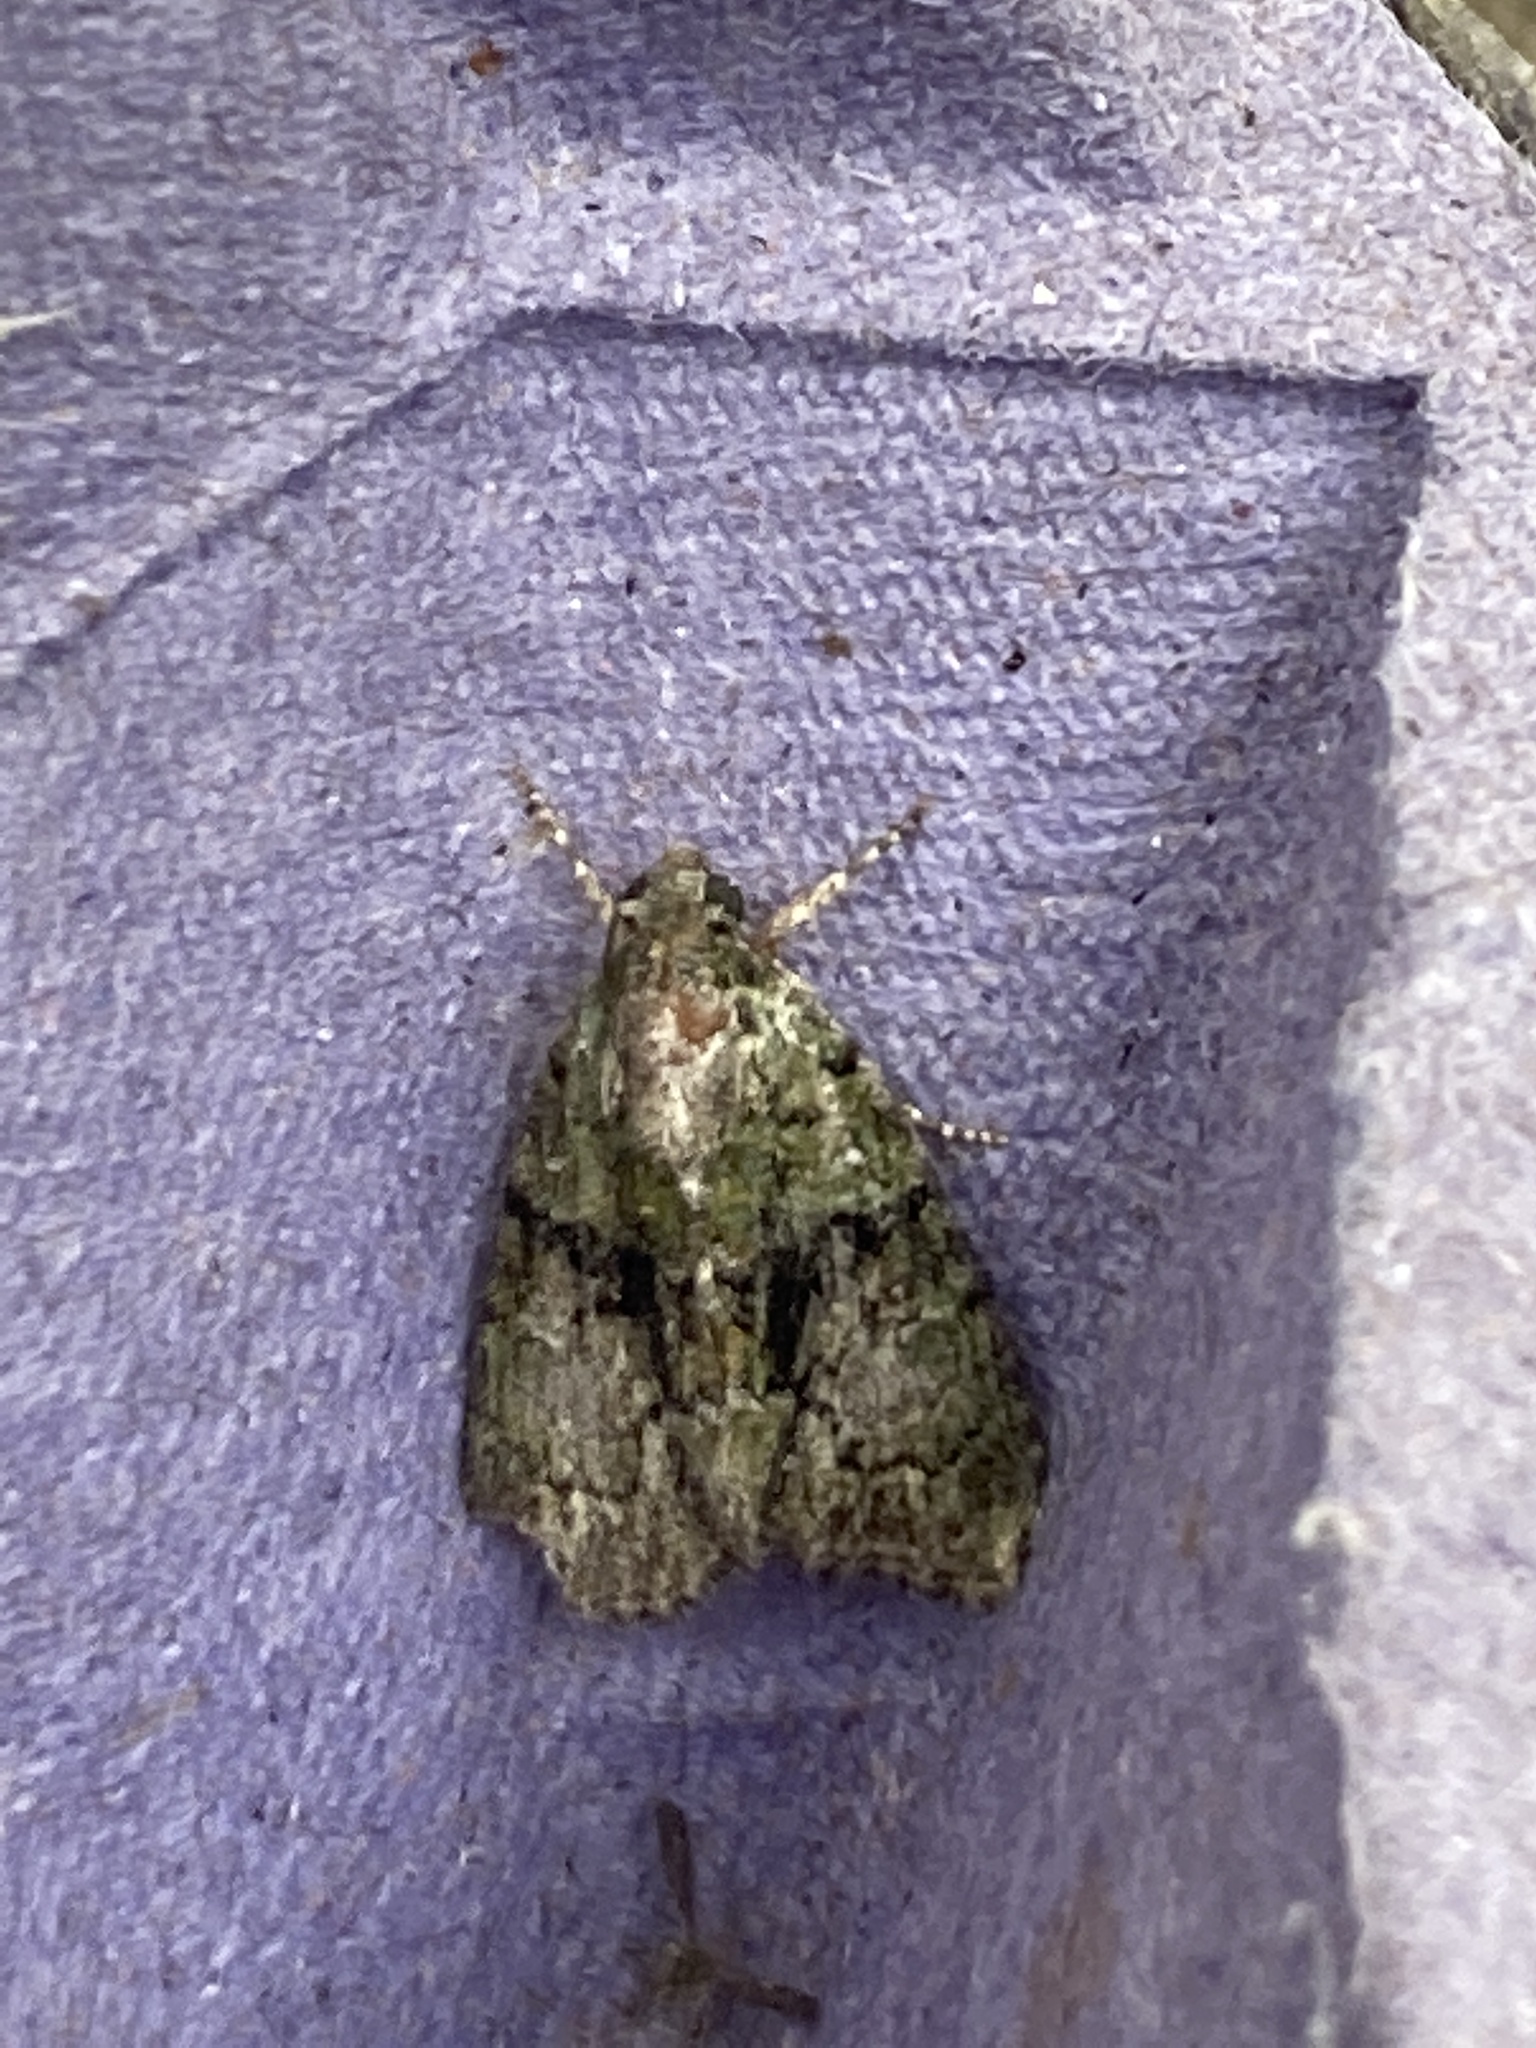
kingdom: Animalia
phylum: Arthropoda
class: Insecta
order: Lepidoptera
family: Noctuidae
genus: Cryphia
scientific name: Cryphia algae
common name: Tree-lichen beauty
